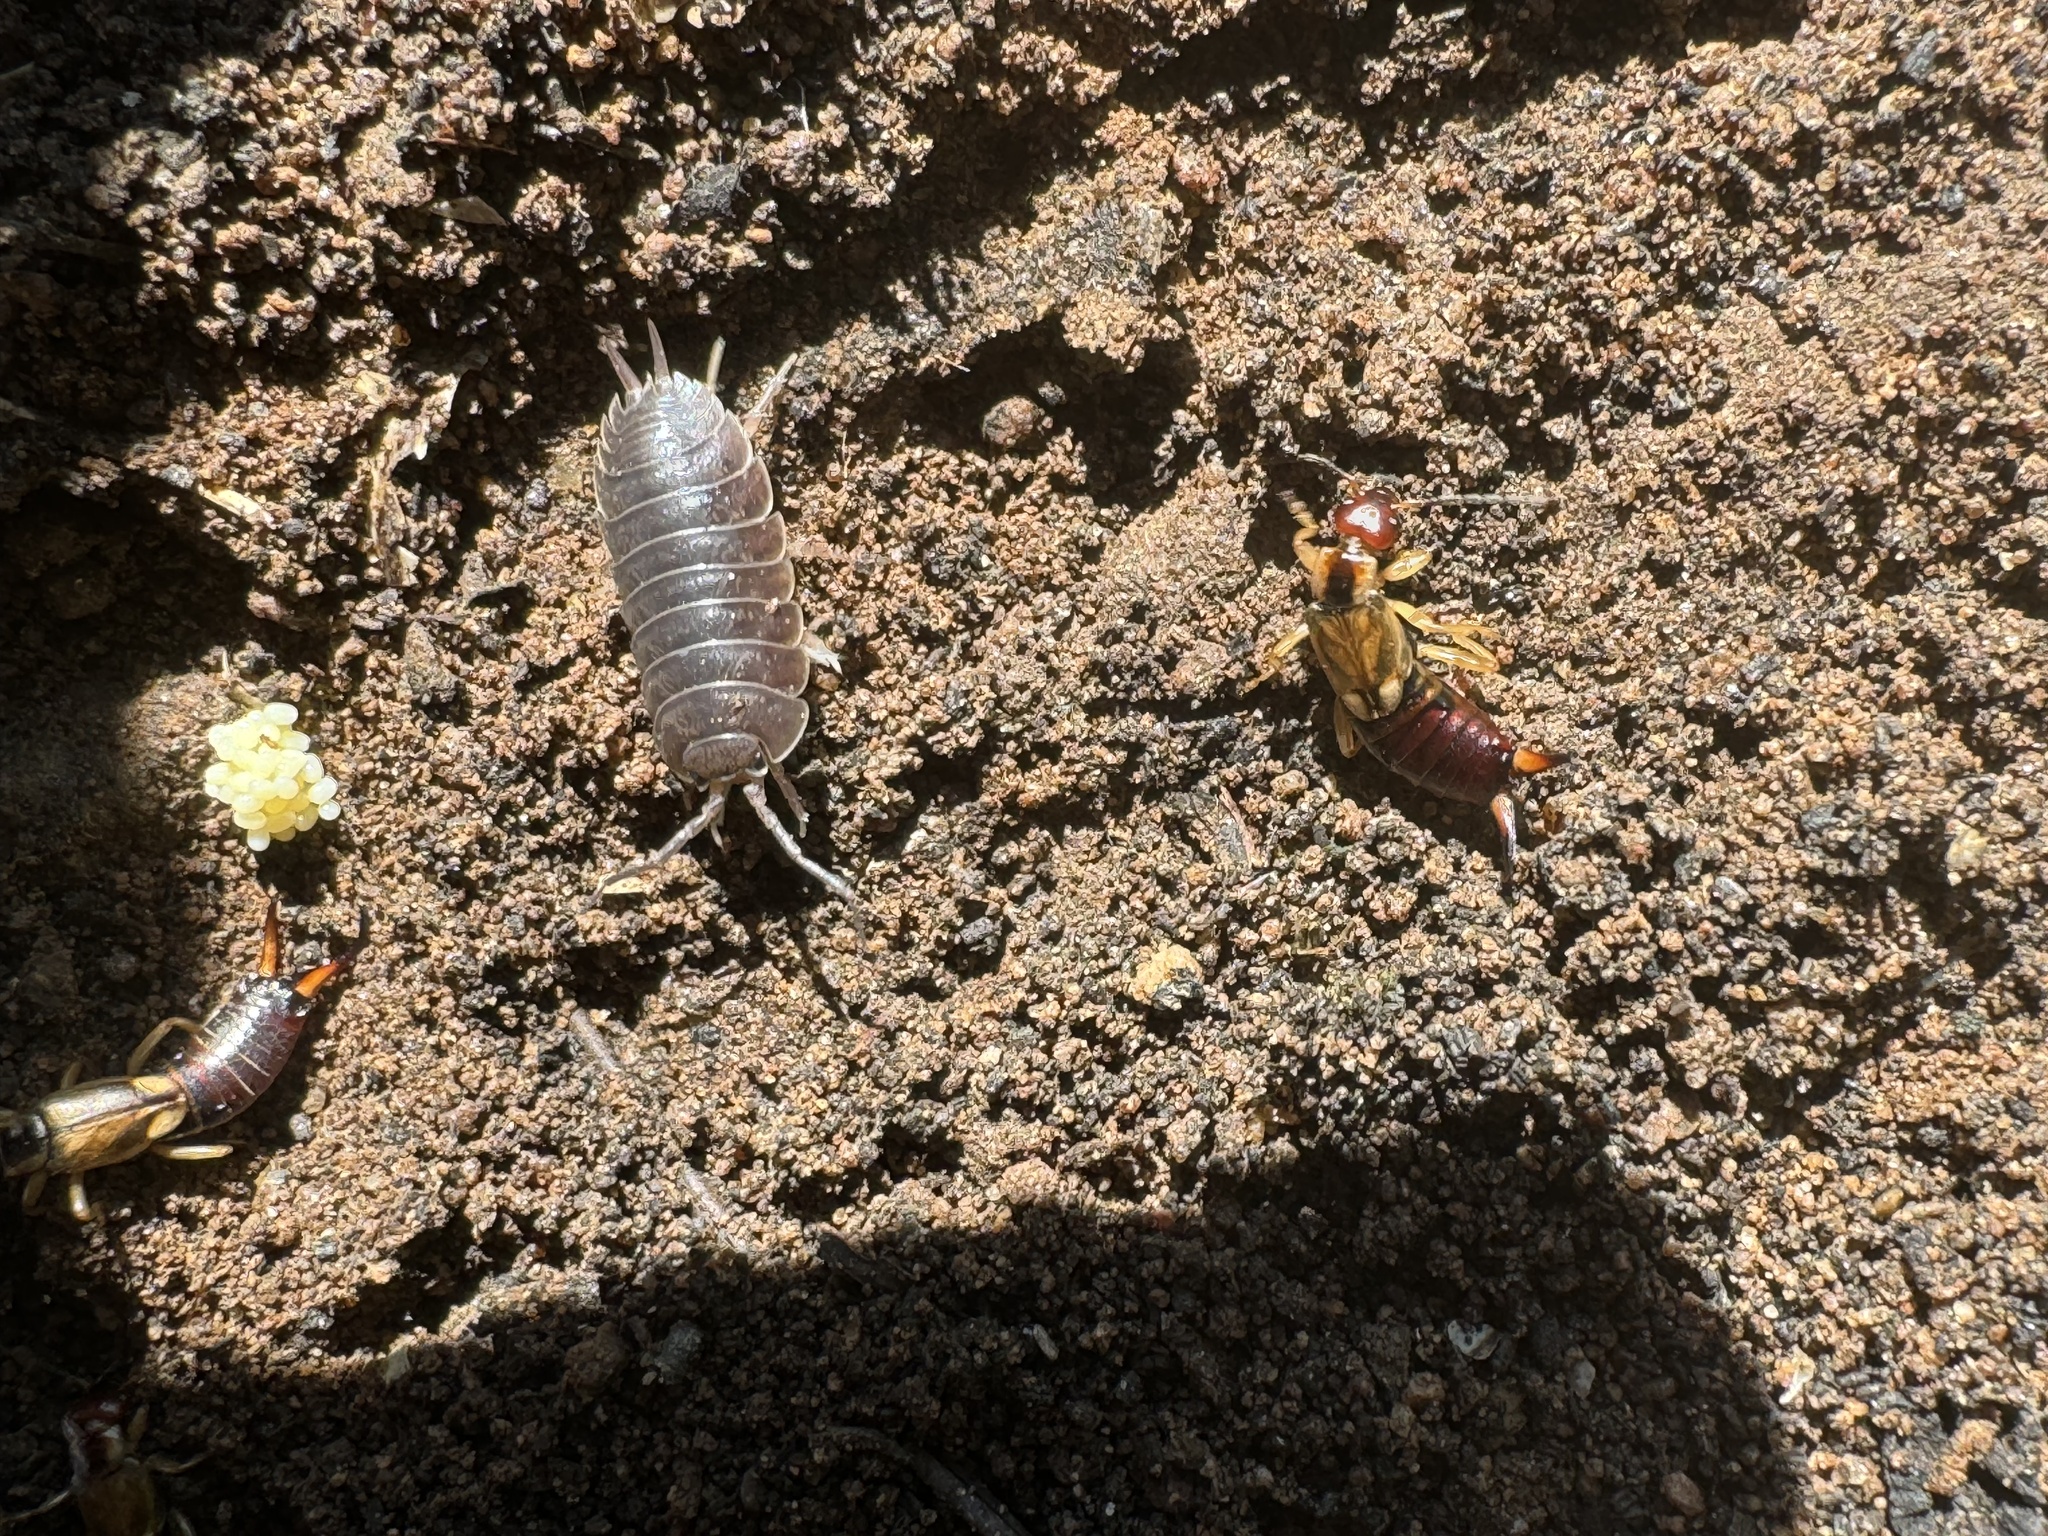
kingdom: Animalia
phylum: Arthropoda
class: Malacostraca
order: Isopoda
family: Porcellionidae
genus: Porcellio
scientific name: Porcellio laevis
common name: Swift woodlouse
